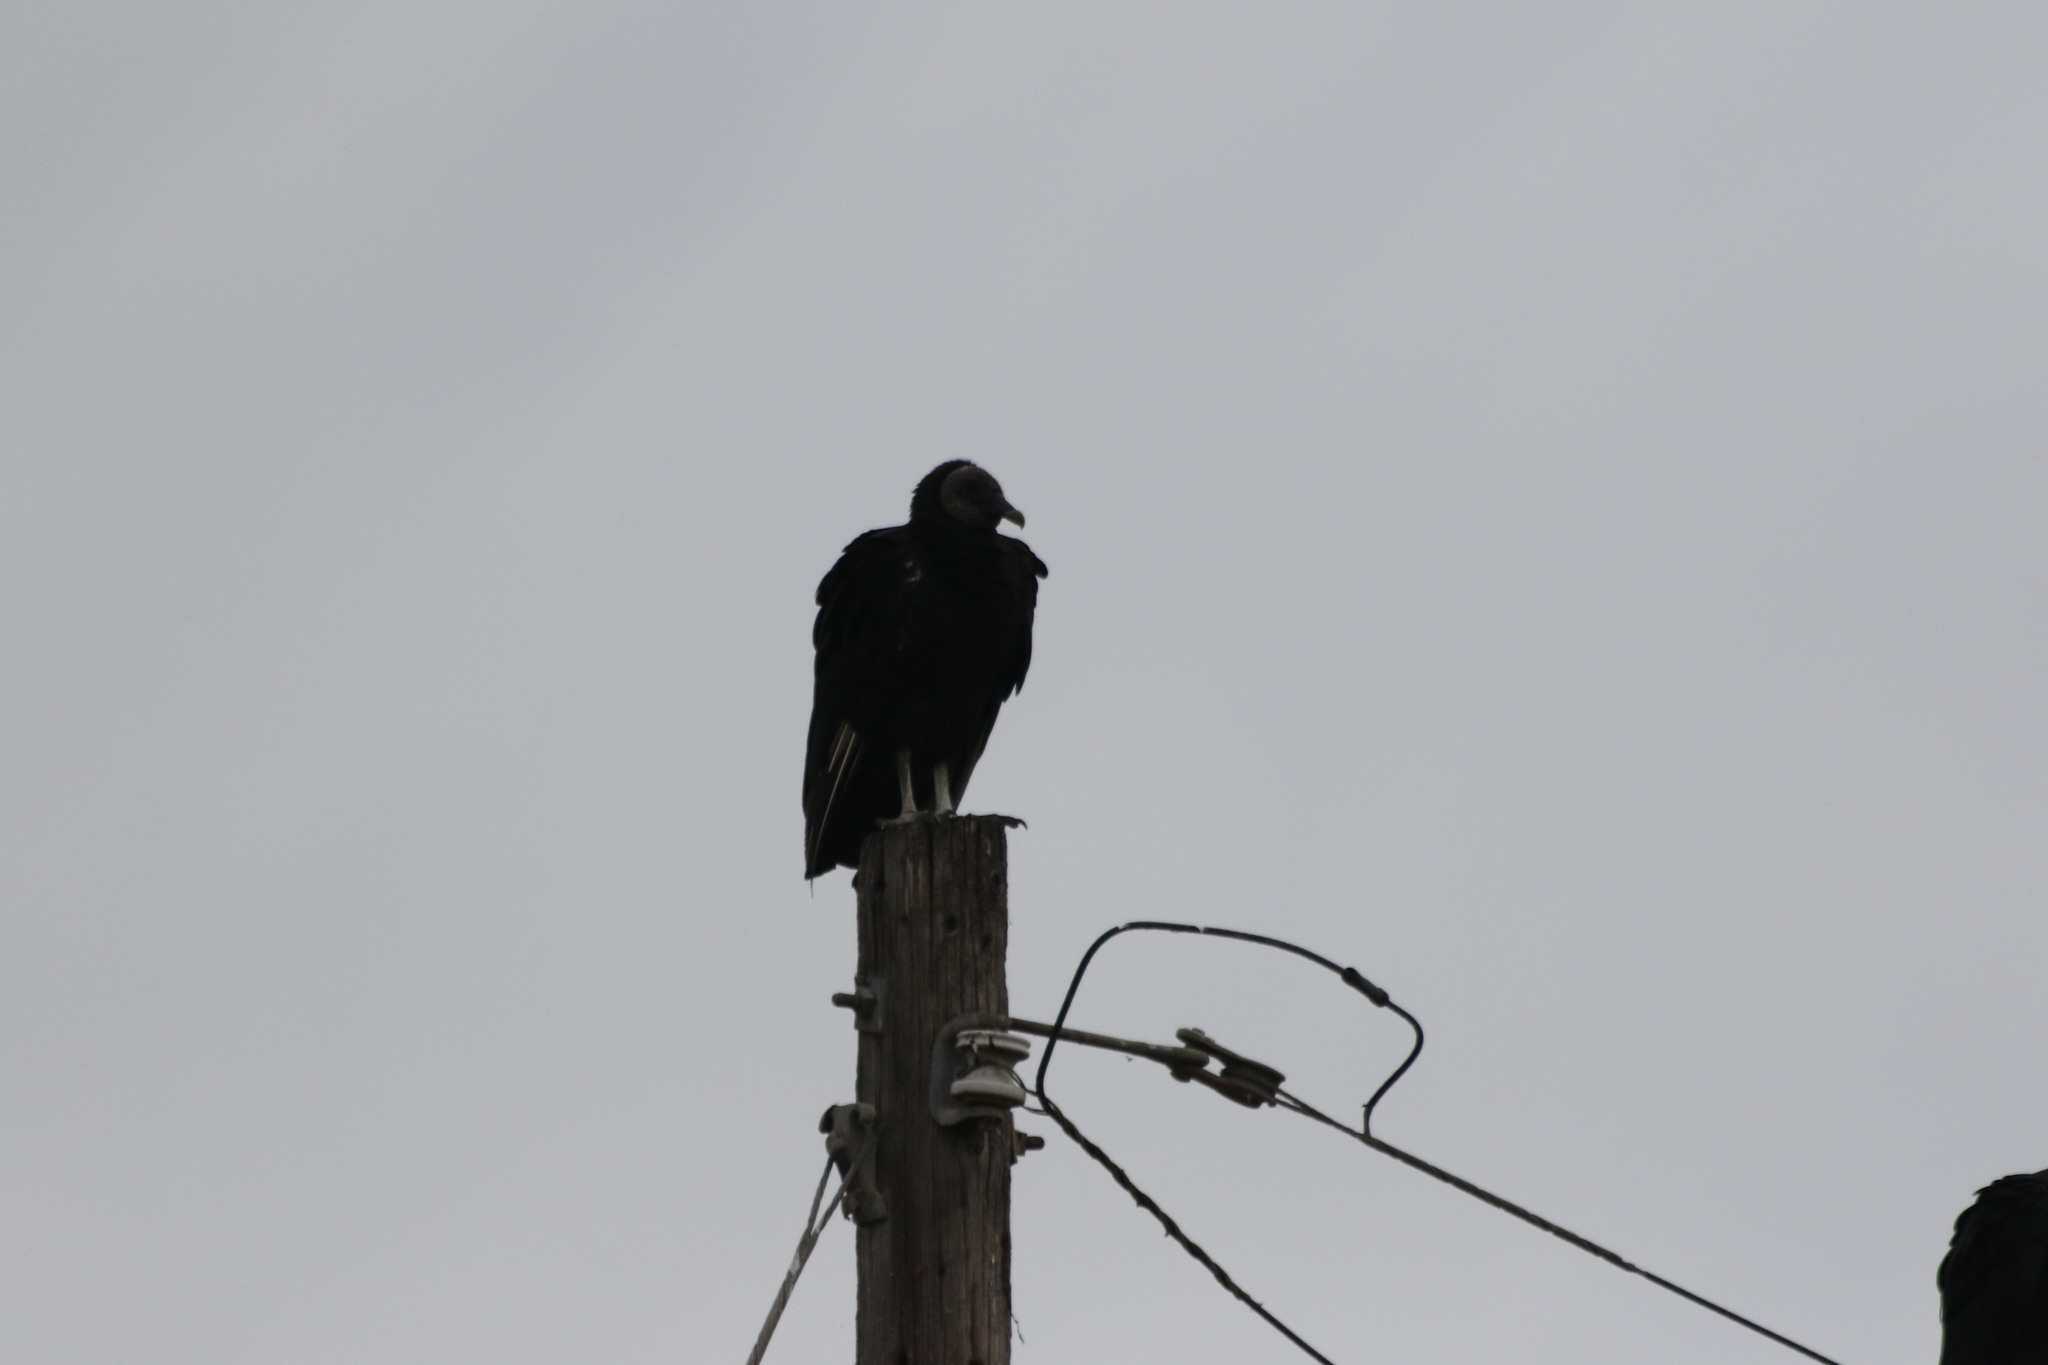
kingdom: Animalia
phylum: Chordata
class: Aves
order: Accipitriformes
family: Cathartidae
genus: Coragyps
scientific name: Coragyps atratus
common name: Black vulture
